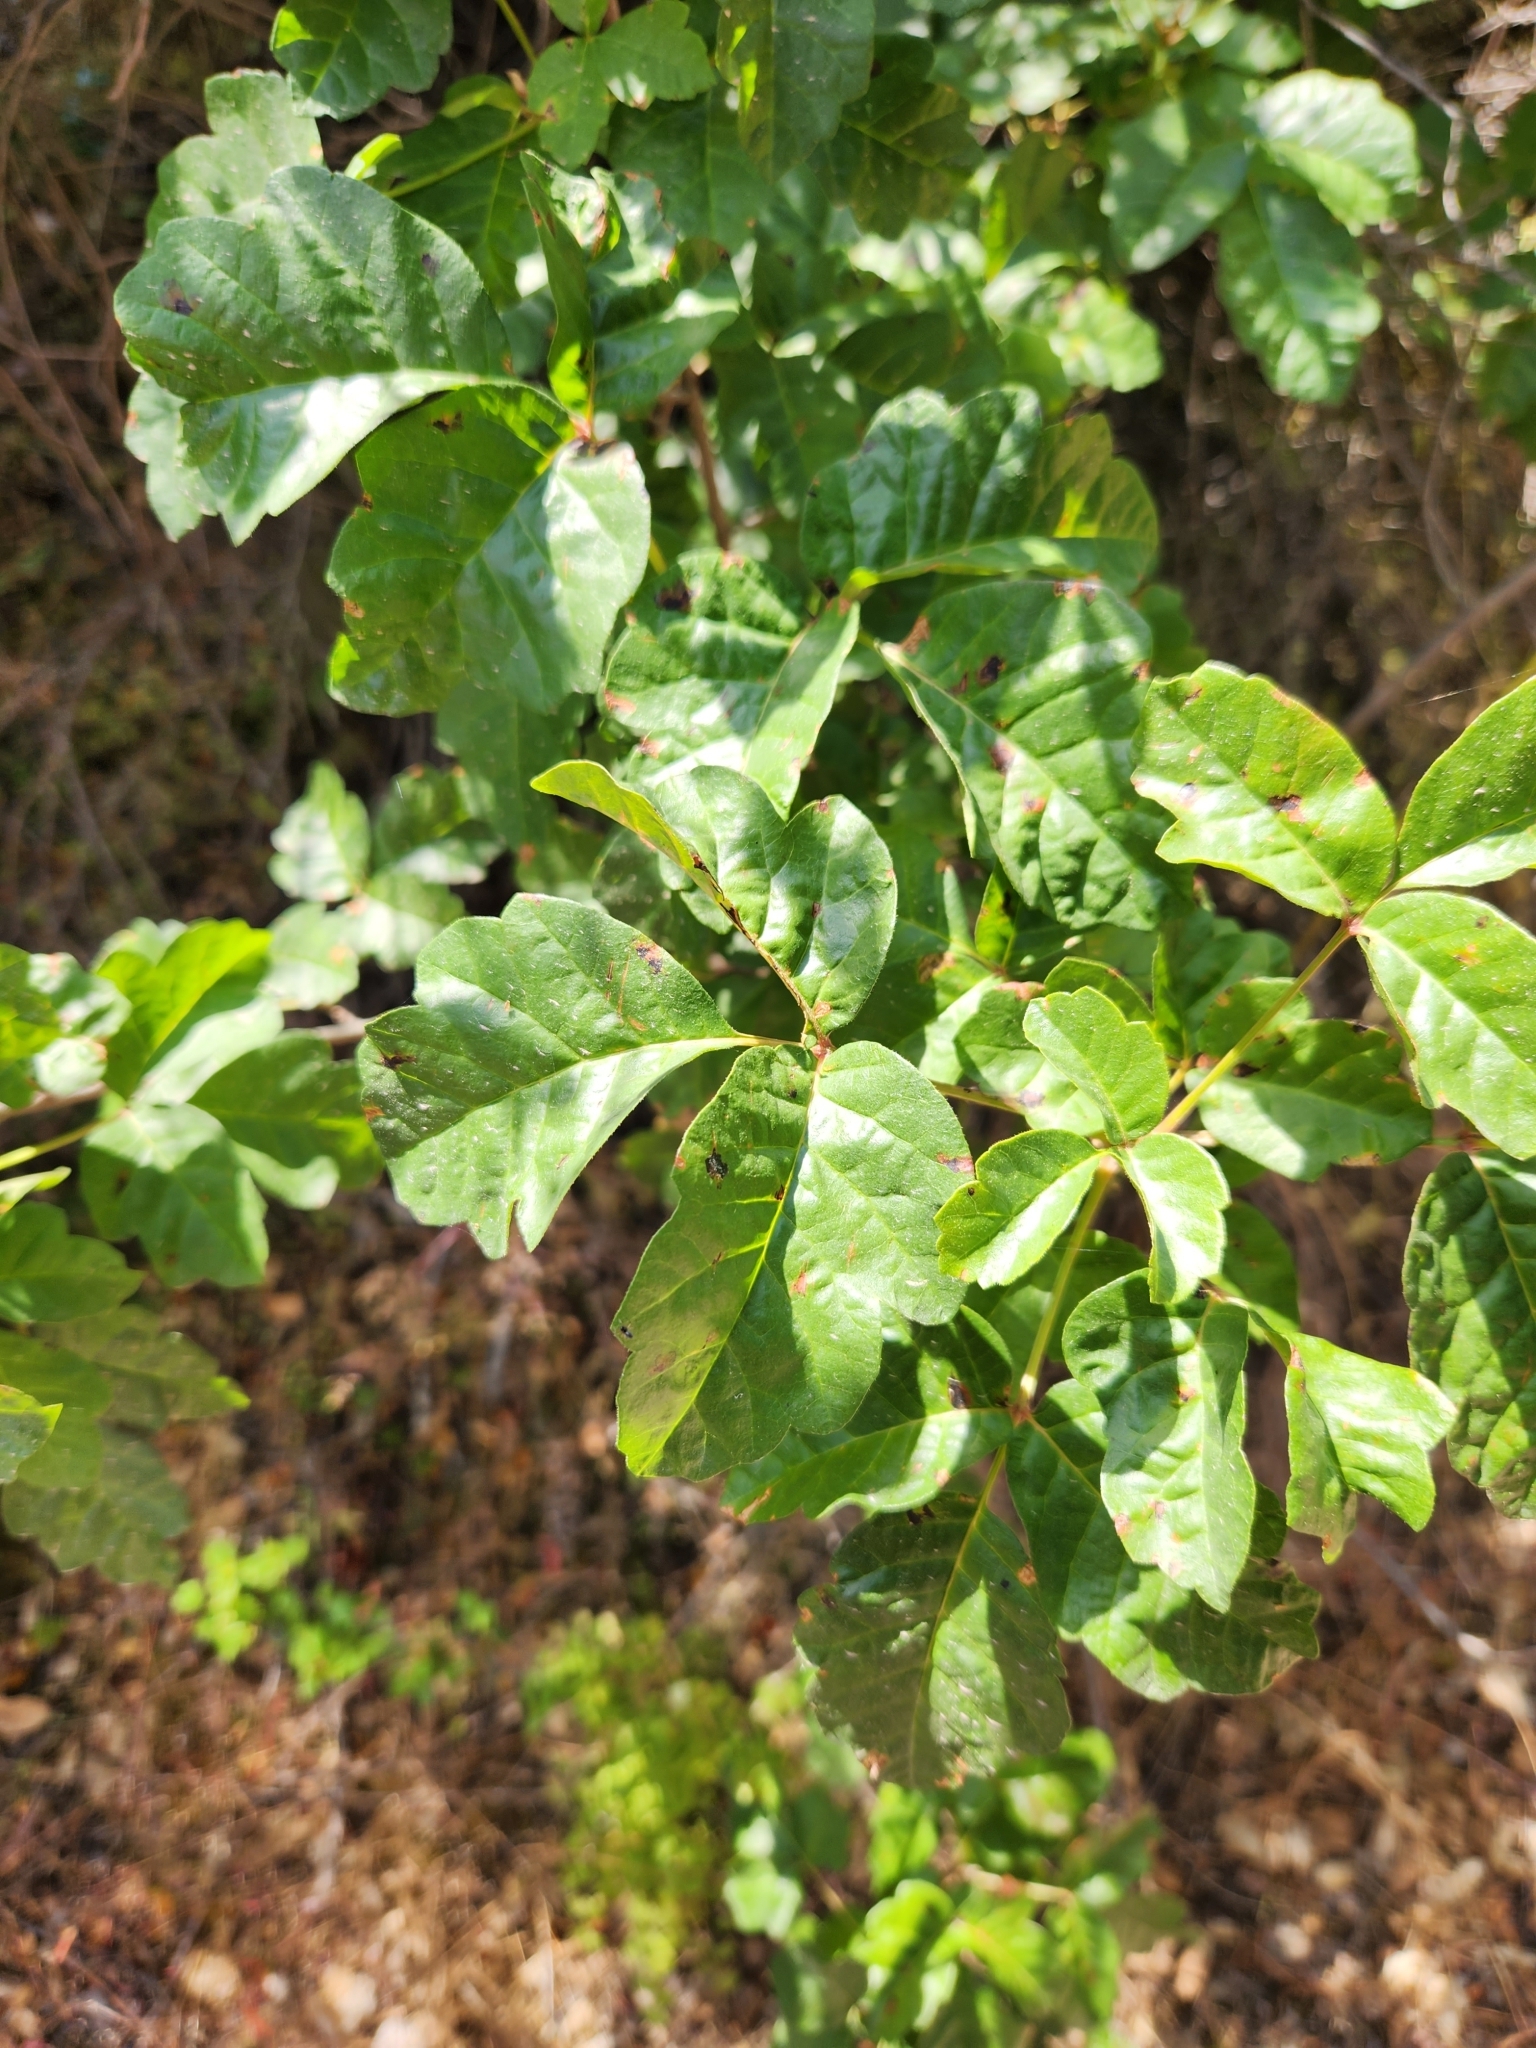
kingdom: Plantae
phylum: Tracheophyta
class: Magnoliopsida
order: Sapindales
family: Anacardiaceae
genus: Toxicodendron
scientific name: Toxicodendron diversilobum
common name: Pacific poison-oak
